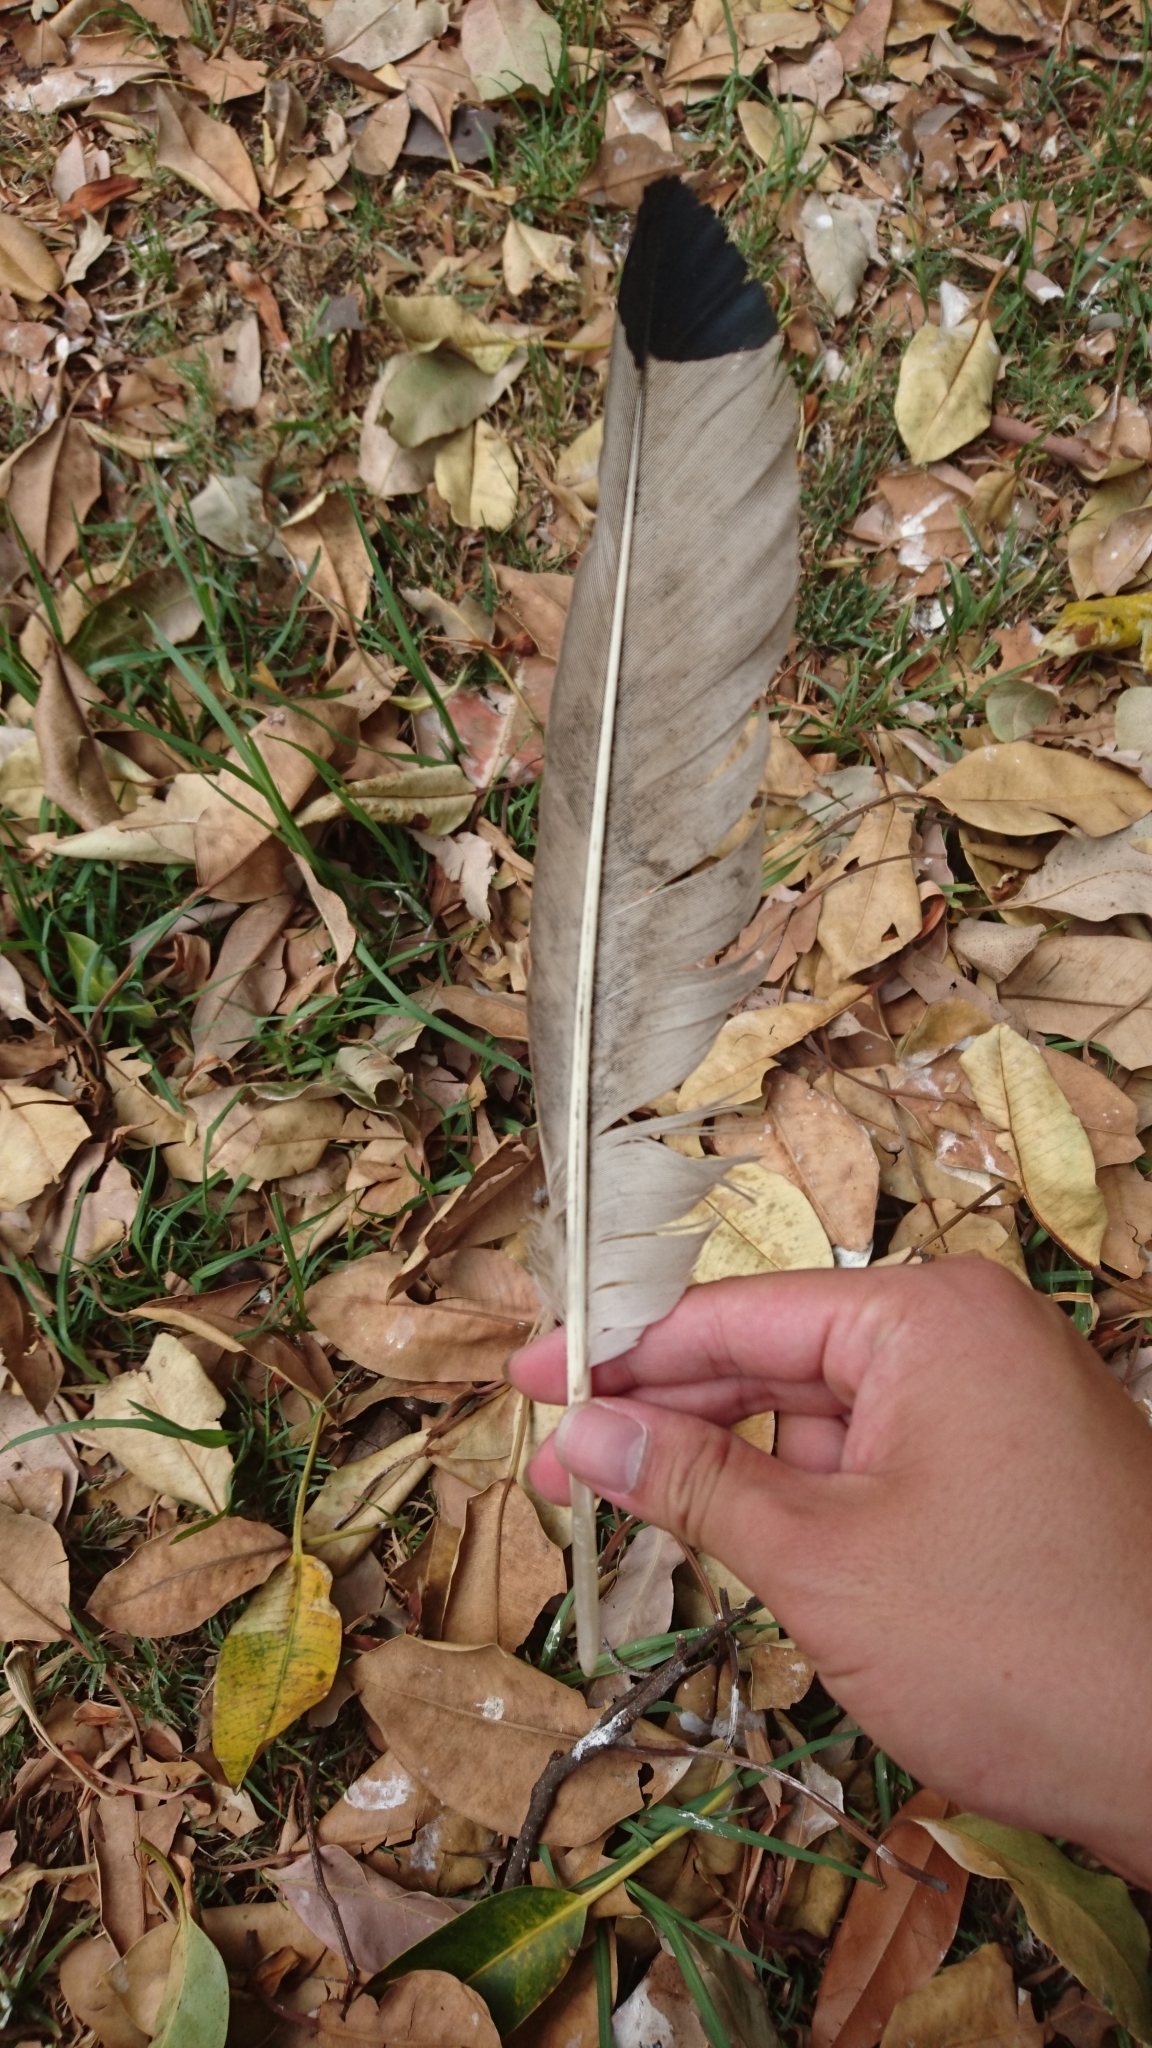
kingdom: Animalia
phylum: Chordata
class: Aves
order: Pelecaniformes
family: Threskiornithidae
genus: Threskiornis
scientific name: Threskiornis molucca
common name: Australian white ibis
